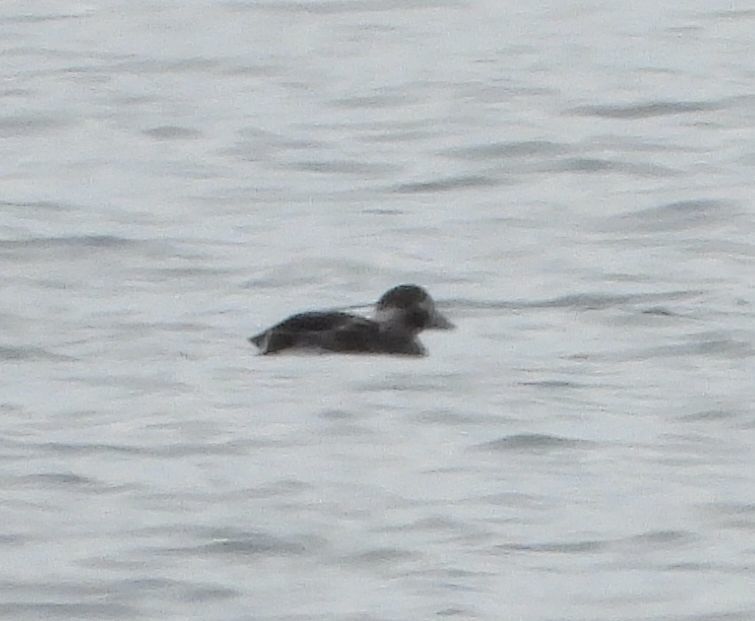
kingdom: Animalia
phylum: Chordata
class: Aves
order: Anseriformes
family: Anatidae
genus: Clangula
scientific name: Clangula hyemalis
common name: Long-tailed duck
